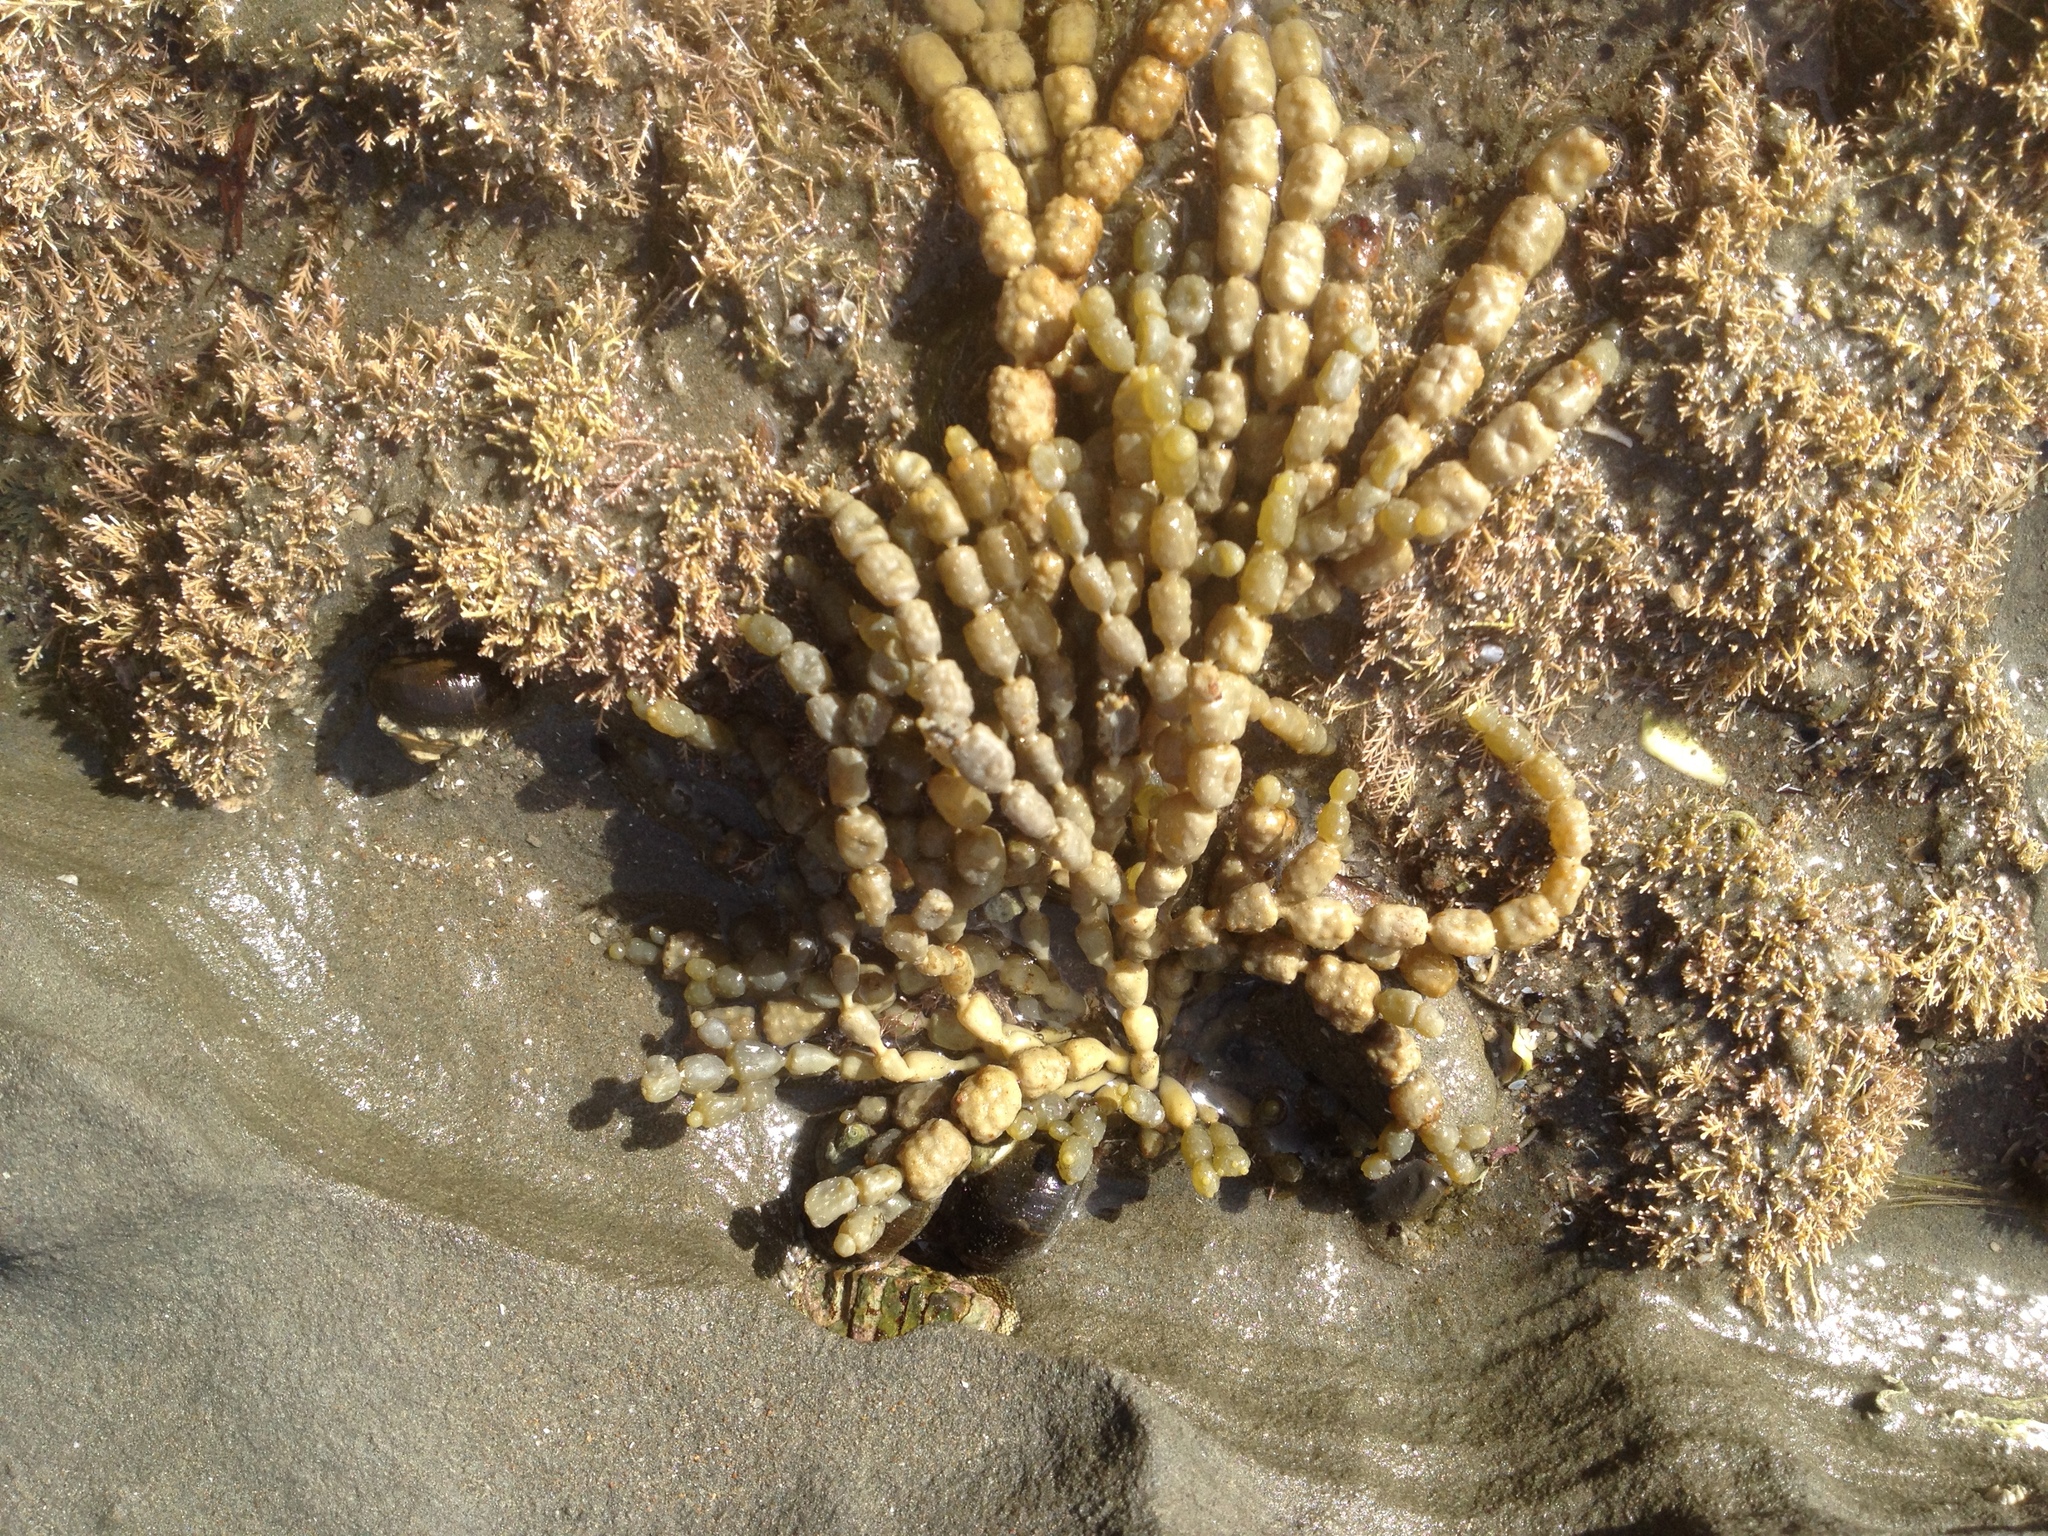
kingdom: Chromista
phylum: Ochrophyta
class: Phaeophyceae
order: Fucales
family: Hormosiraceae
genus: Hormosira
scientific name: Hormosira banksii
